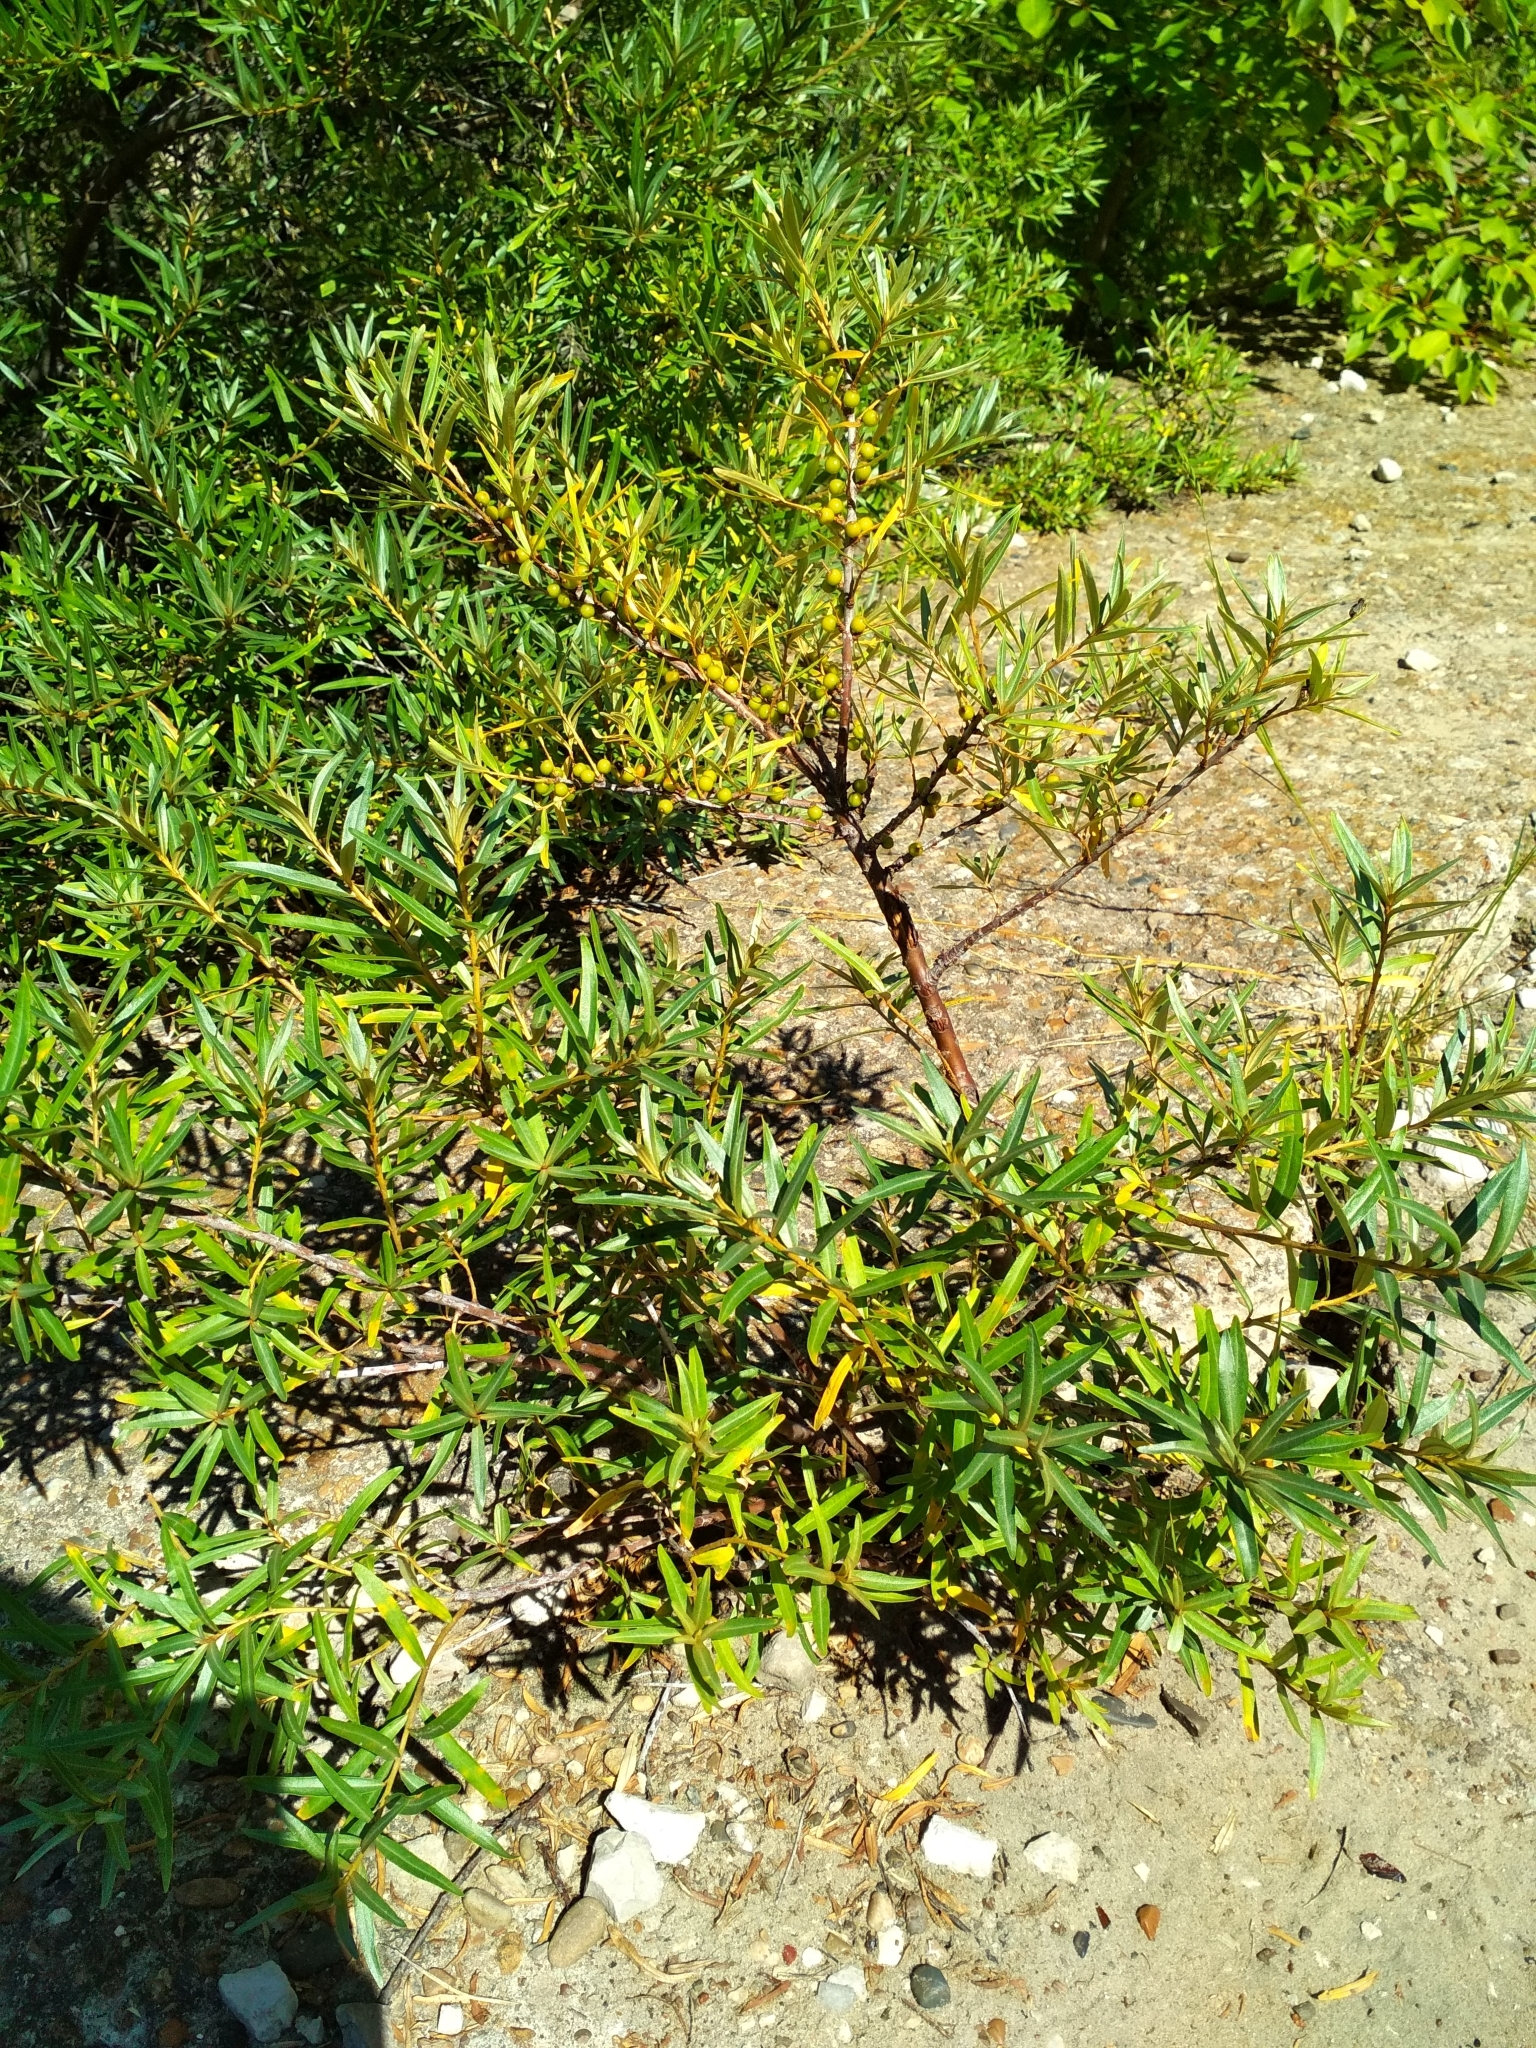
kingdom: Plantae
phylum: Tracheophyta
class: Magnoliopsida
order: Rosales
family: Elaeagnaceae
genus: Hippophae
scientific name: Hippophae rhamnoides
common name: Sea-buckthorn
